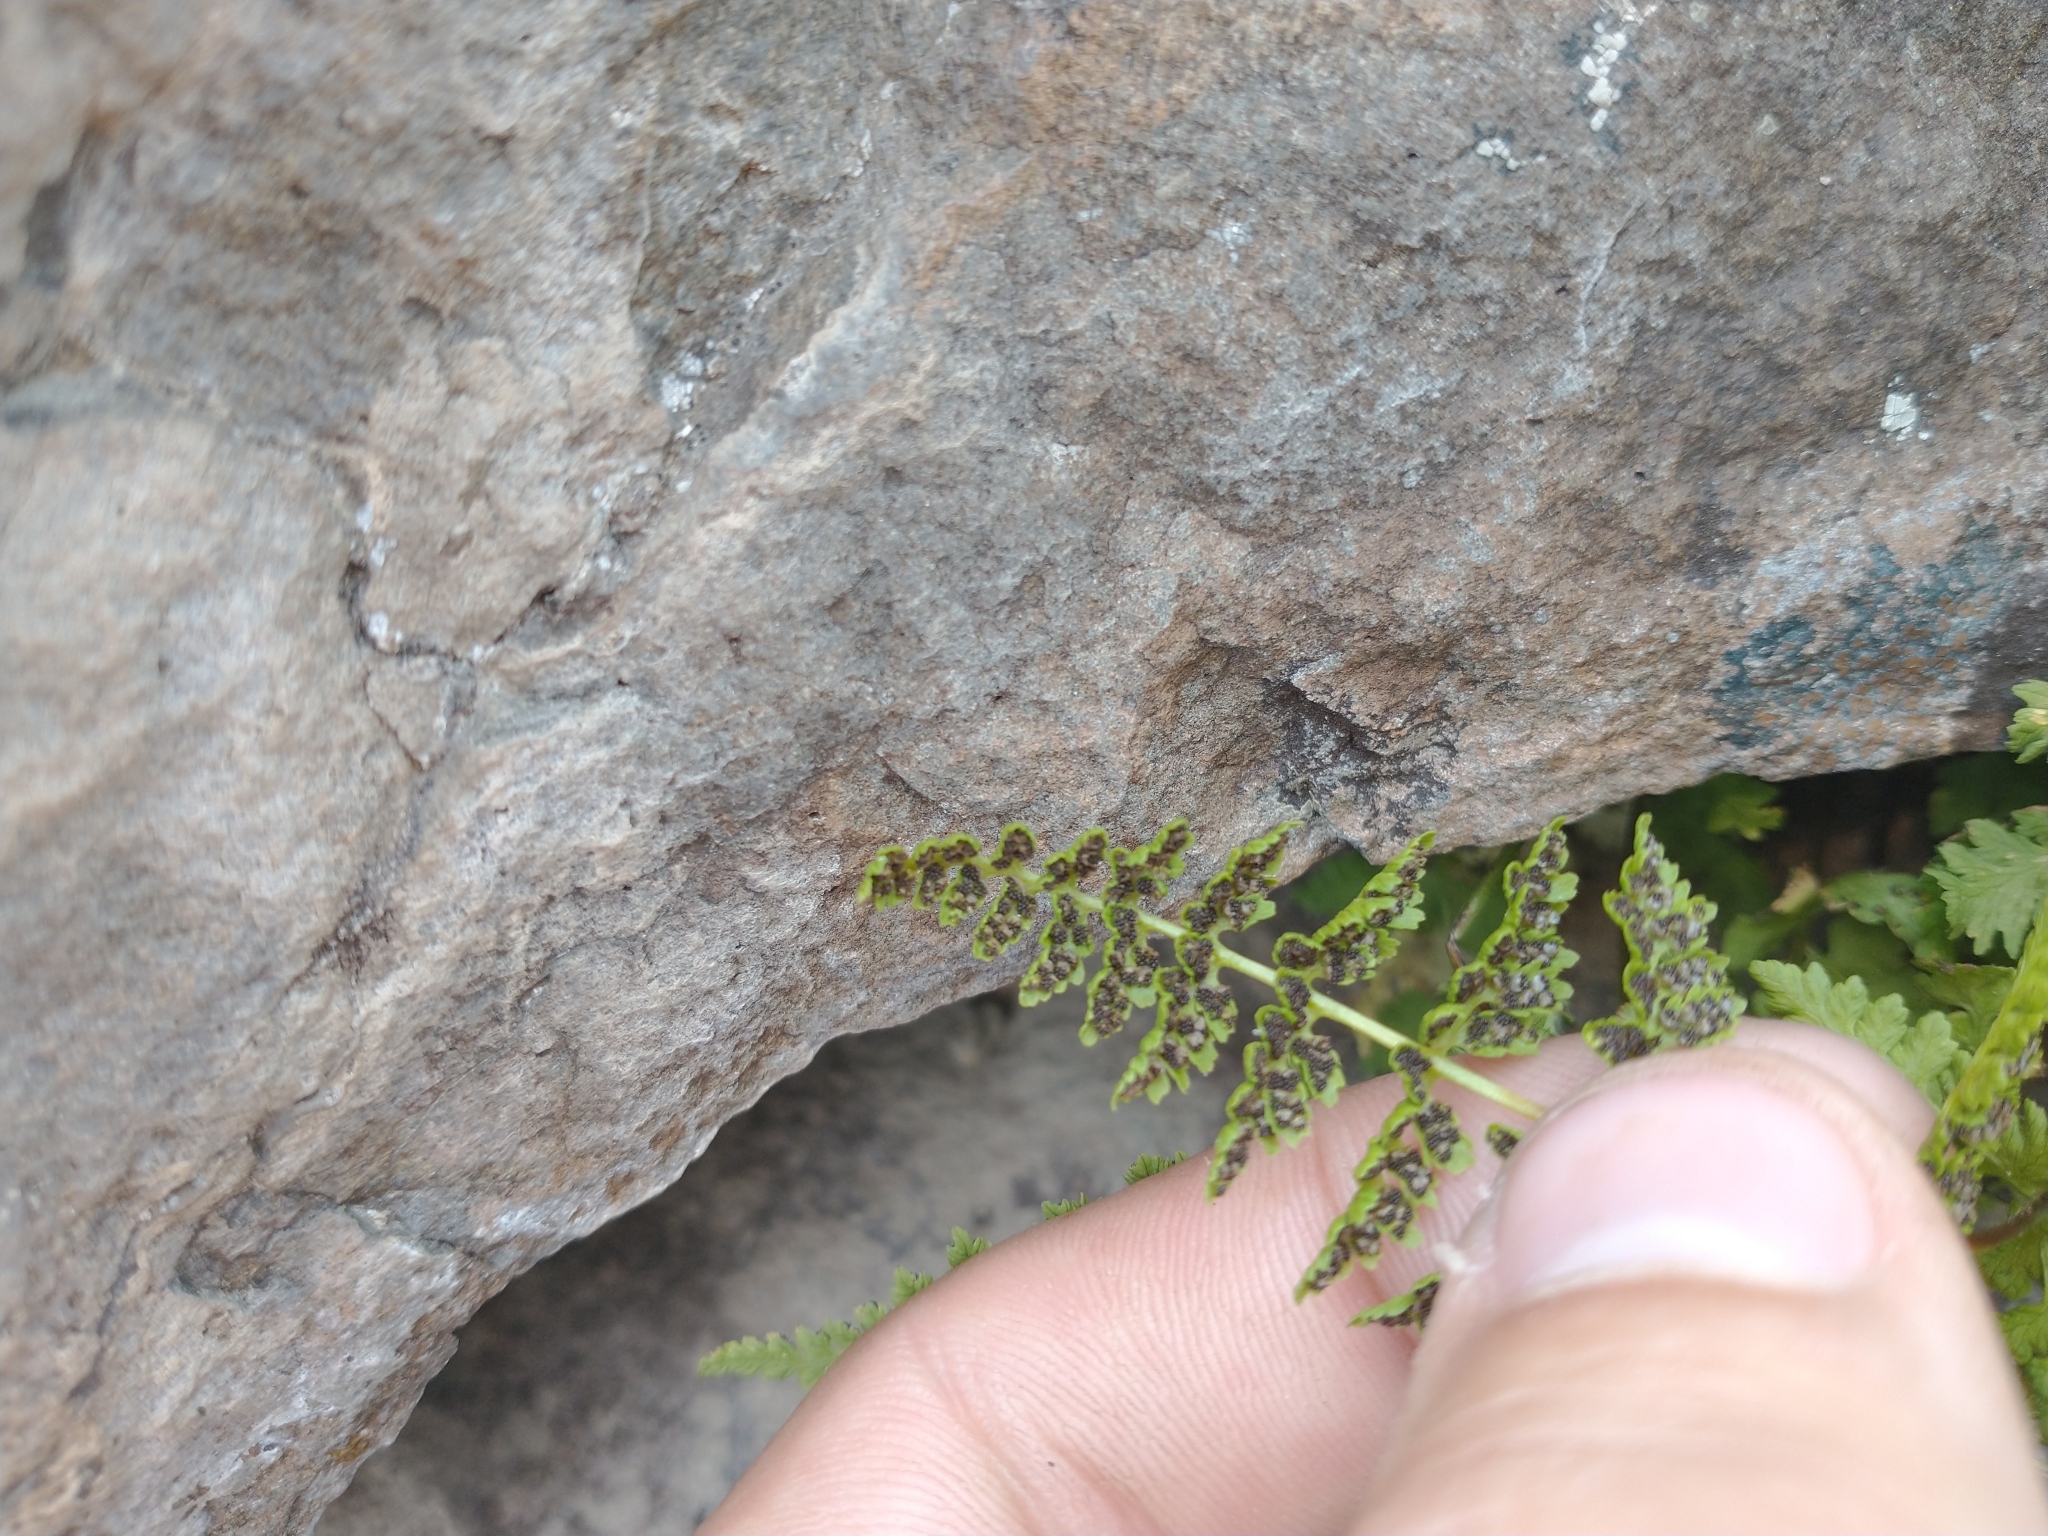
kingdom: Plantae
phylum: Tracheophyta
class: Polypodiopsida
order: Polypodiales
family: Cystopteridaceae
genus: Cystopteris
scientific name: Cystopteris fragilis
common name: Brittle bladder fern
